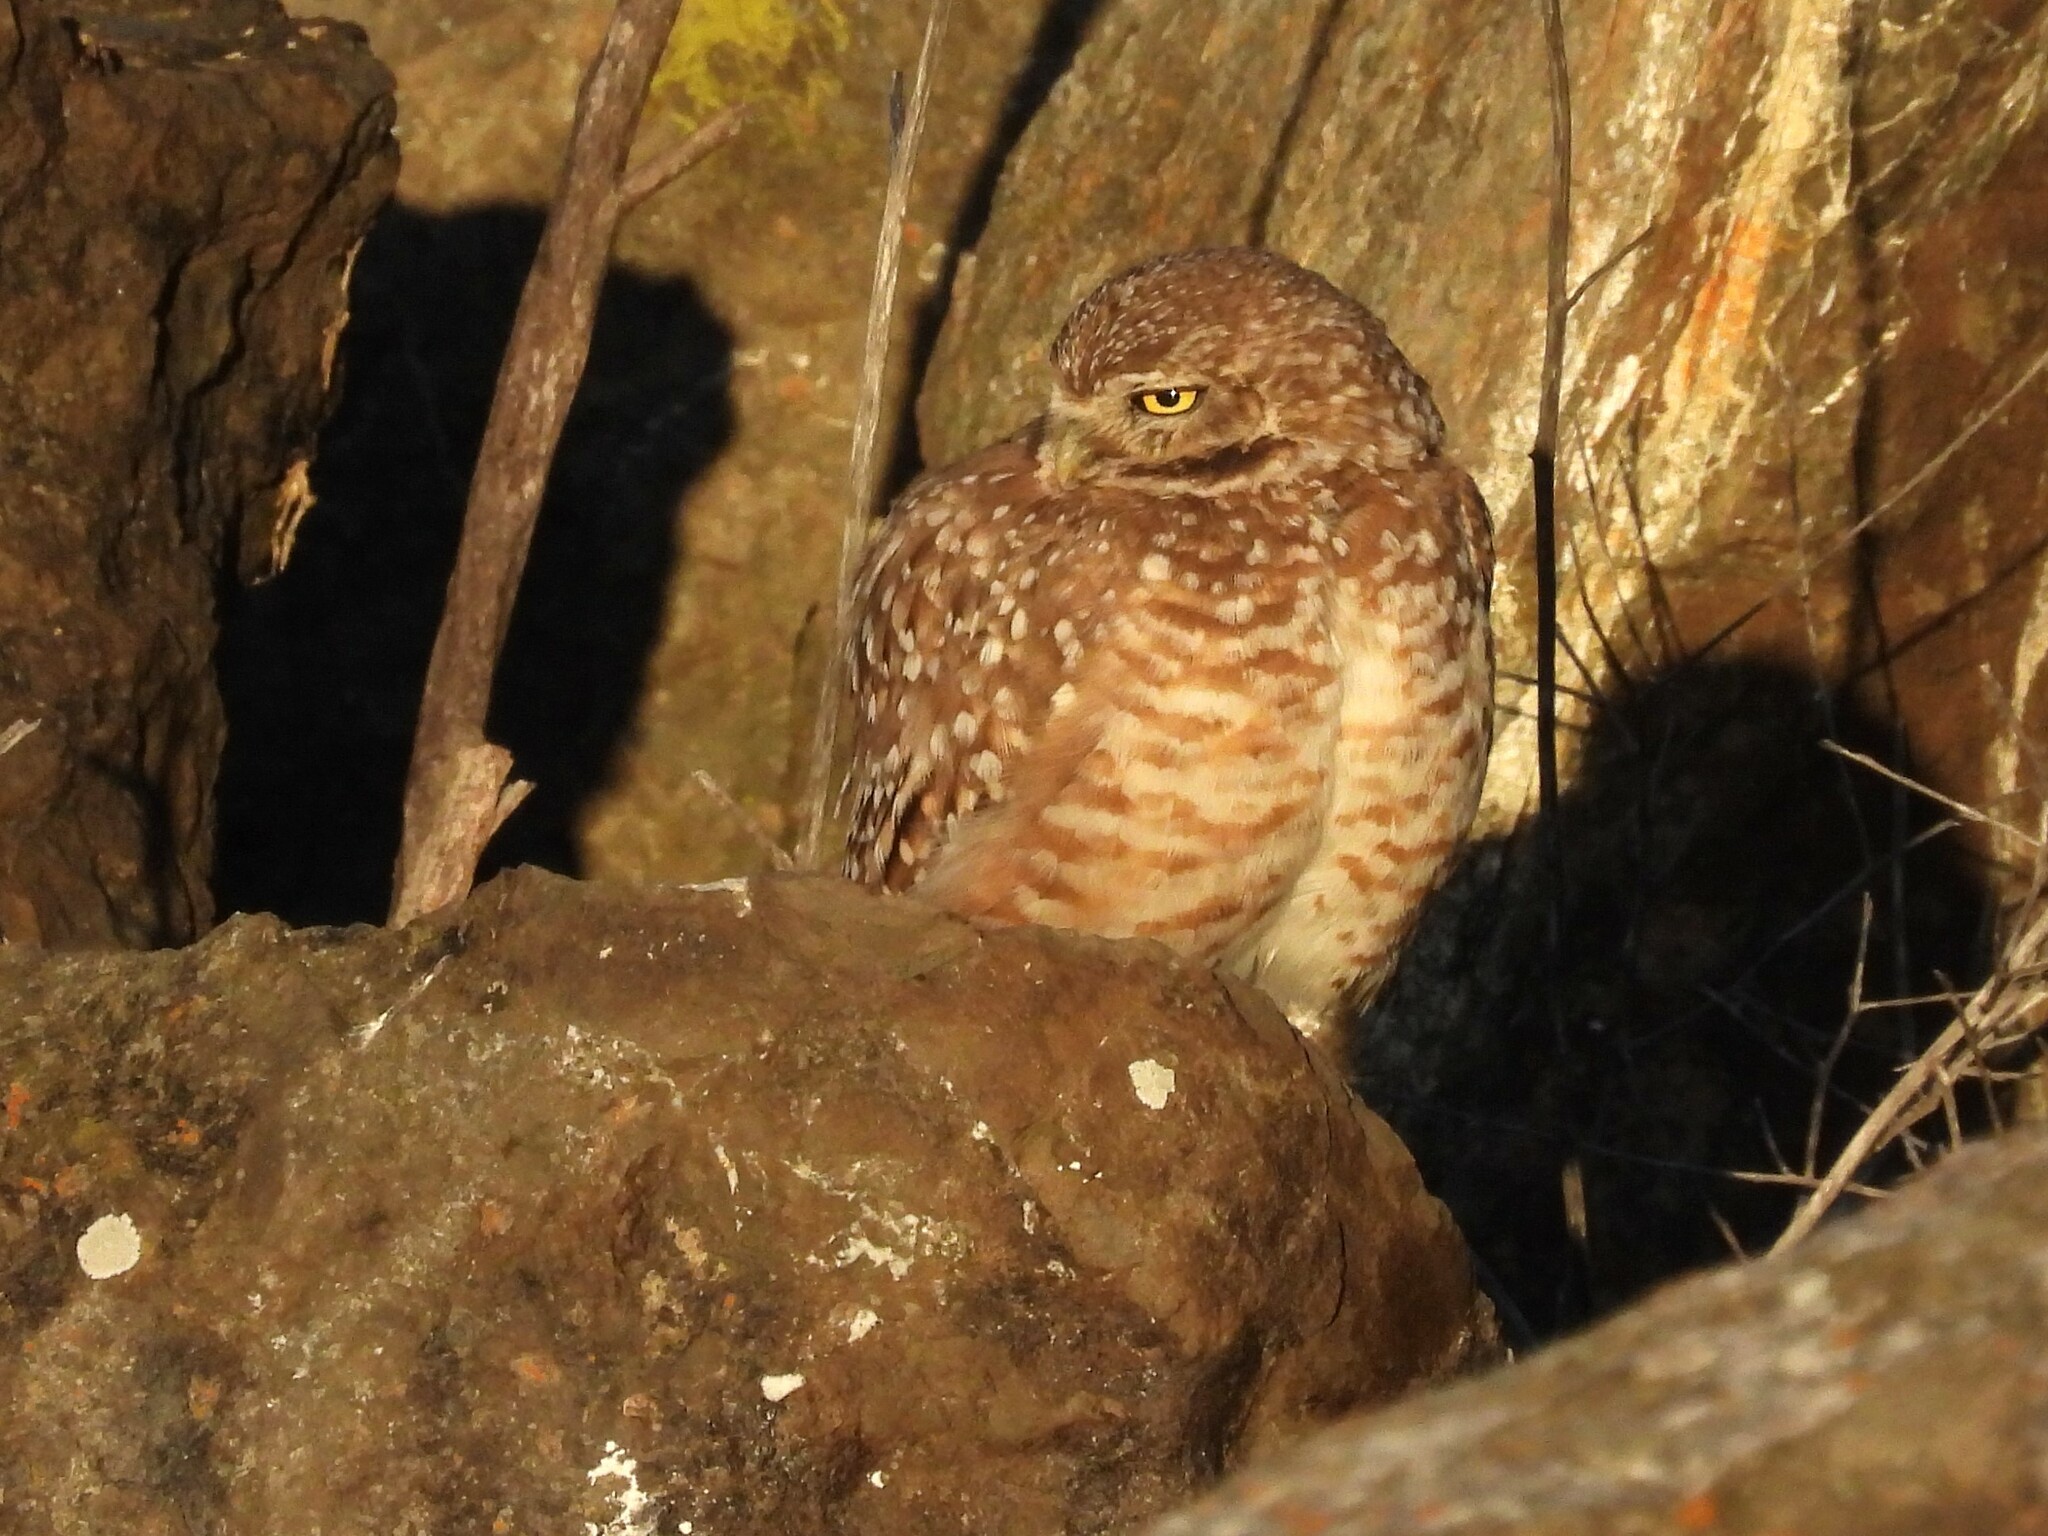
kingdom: Animalia
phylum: Chordata
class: Aves
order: Strigiformes
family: Strigidae
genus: Athene
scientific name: Athene cunicularia
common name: Burrowing owl
